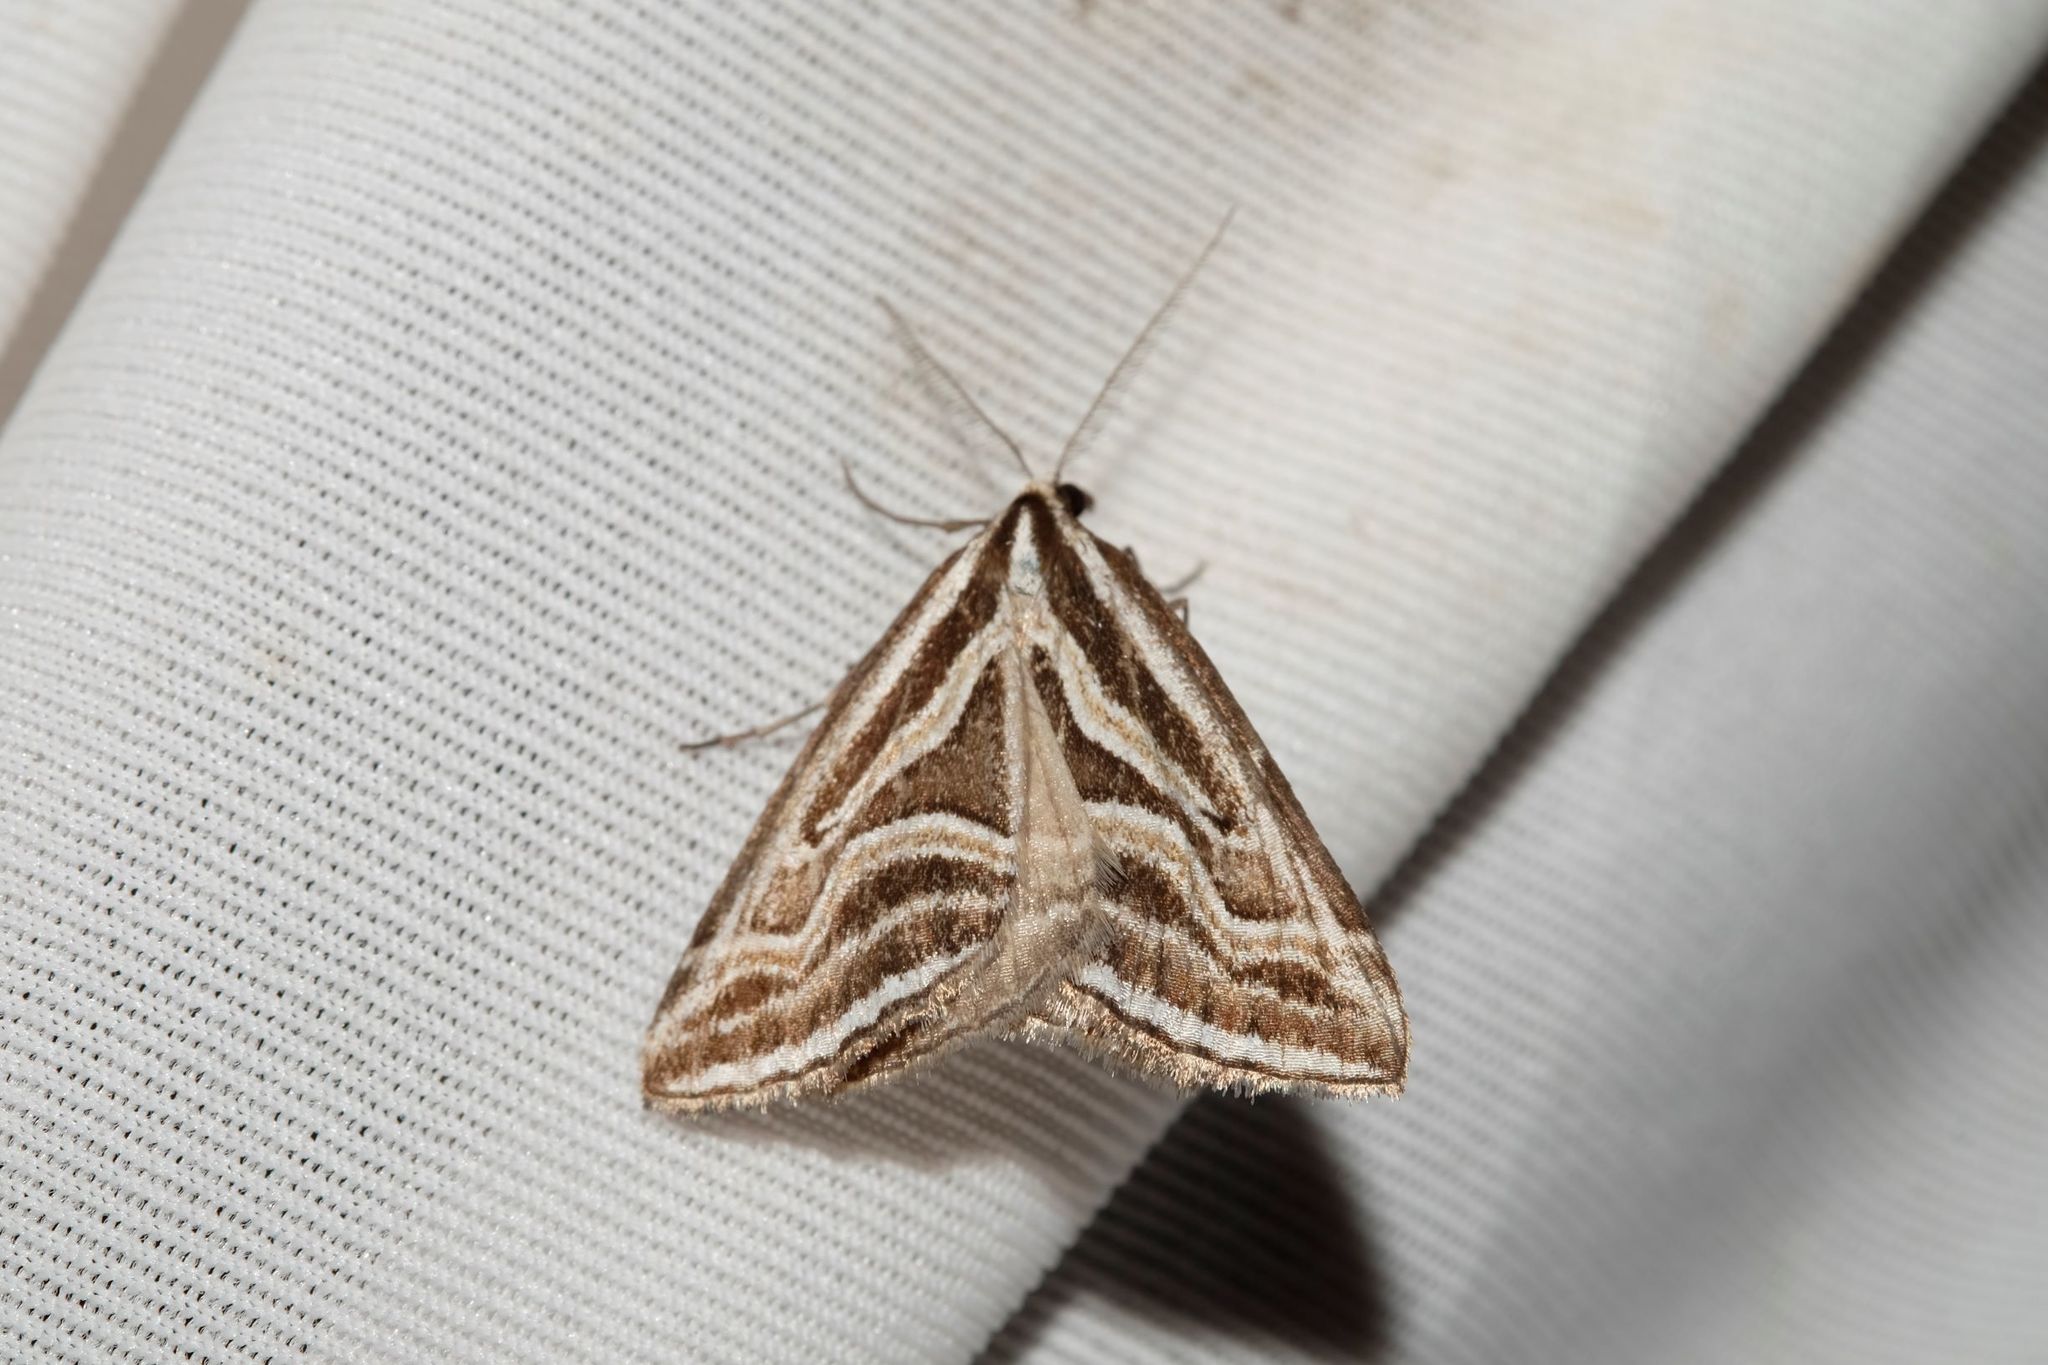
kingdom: Animalia
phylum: Arthropoda
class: Insecta
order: Lepidoptera
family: Geometridae
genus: Dichromodes
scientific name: Dichromodes confluaria
